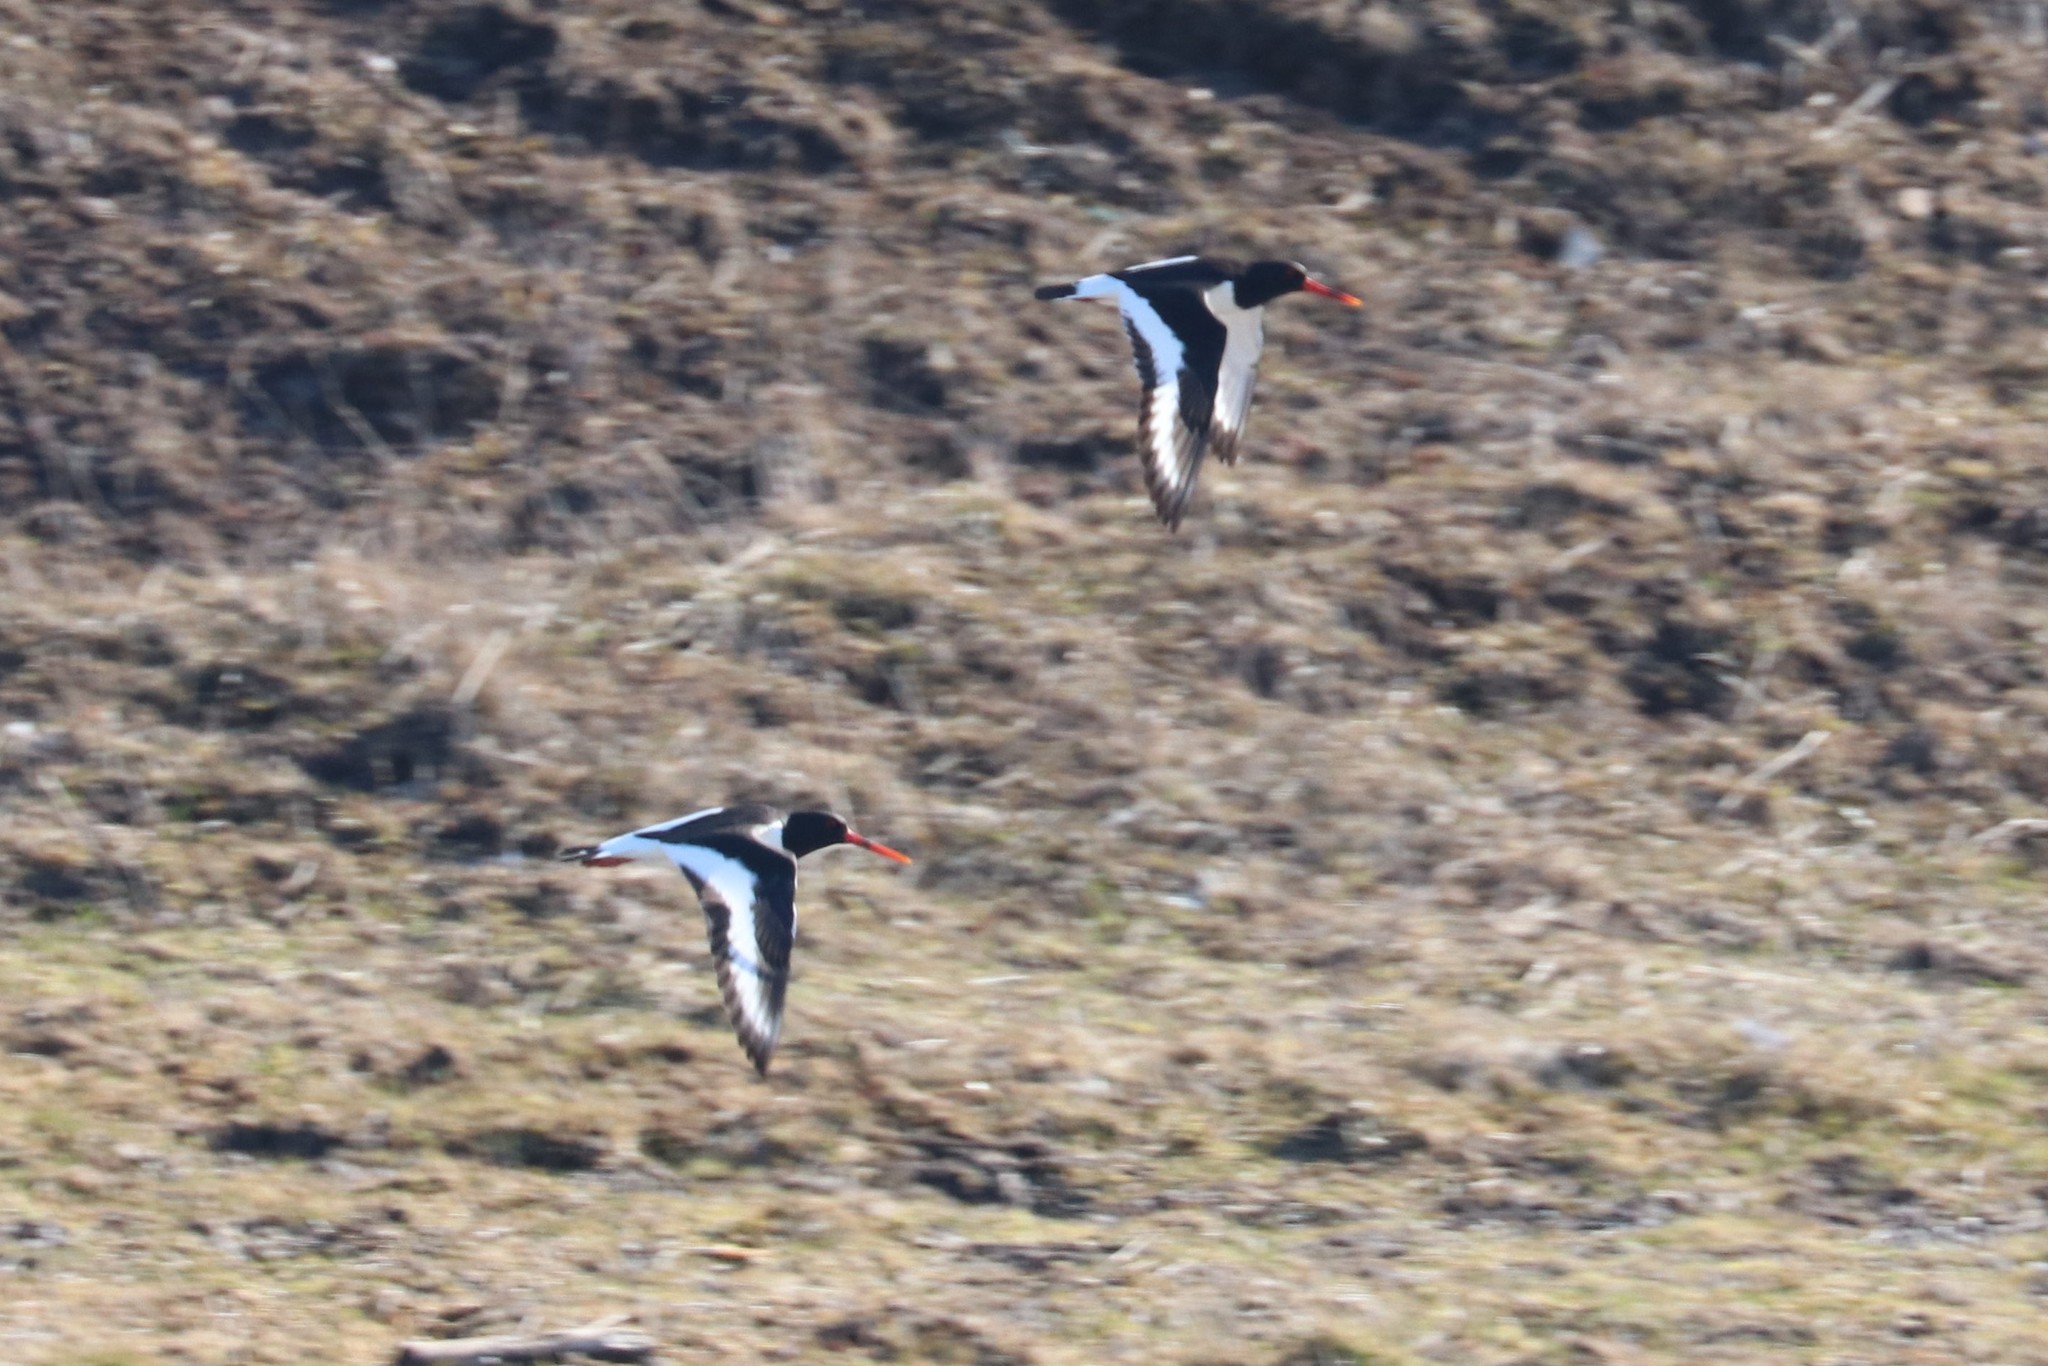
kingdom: Animalia
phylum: Chordata
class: Aves
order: Charadriiformes
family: Haematopodidae
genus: Haematopus
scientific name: Haematopus ostralegus
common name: Eurasian oystercatcher
